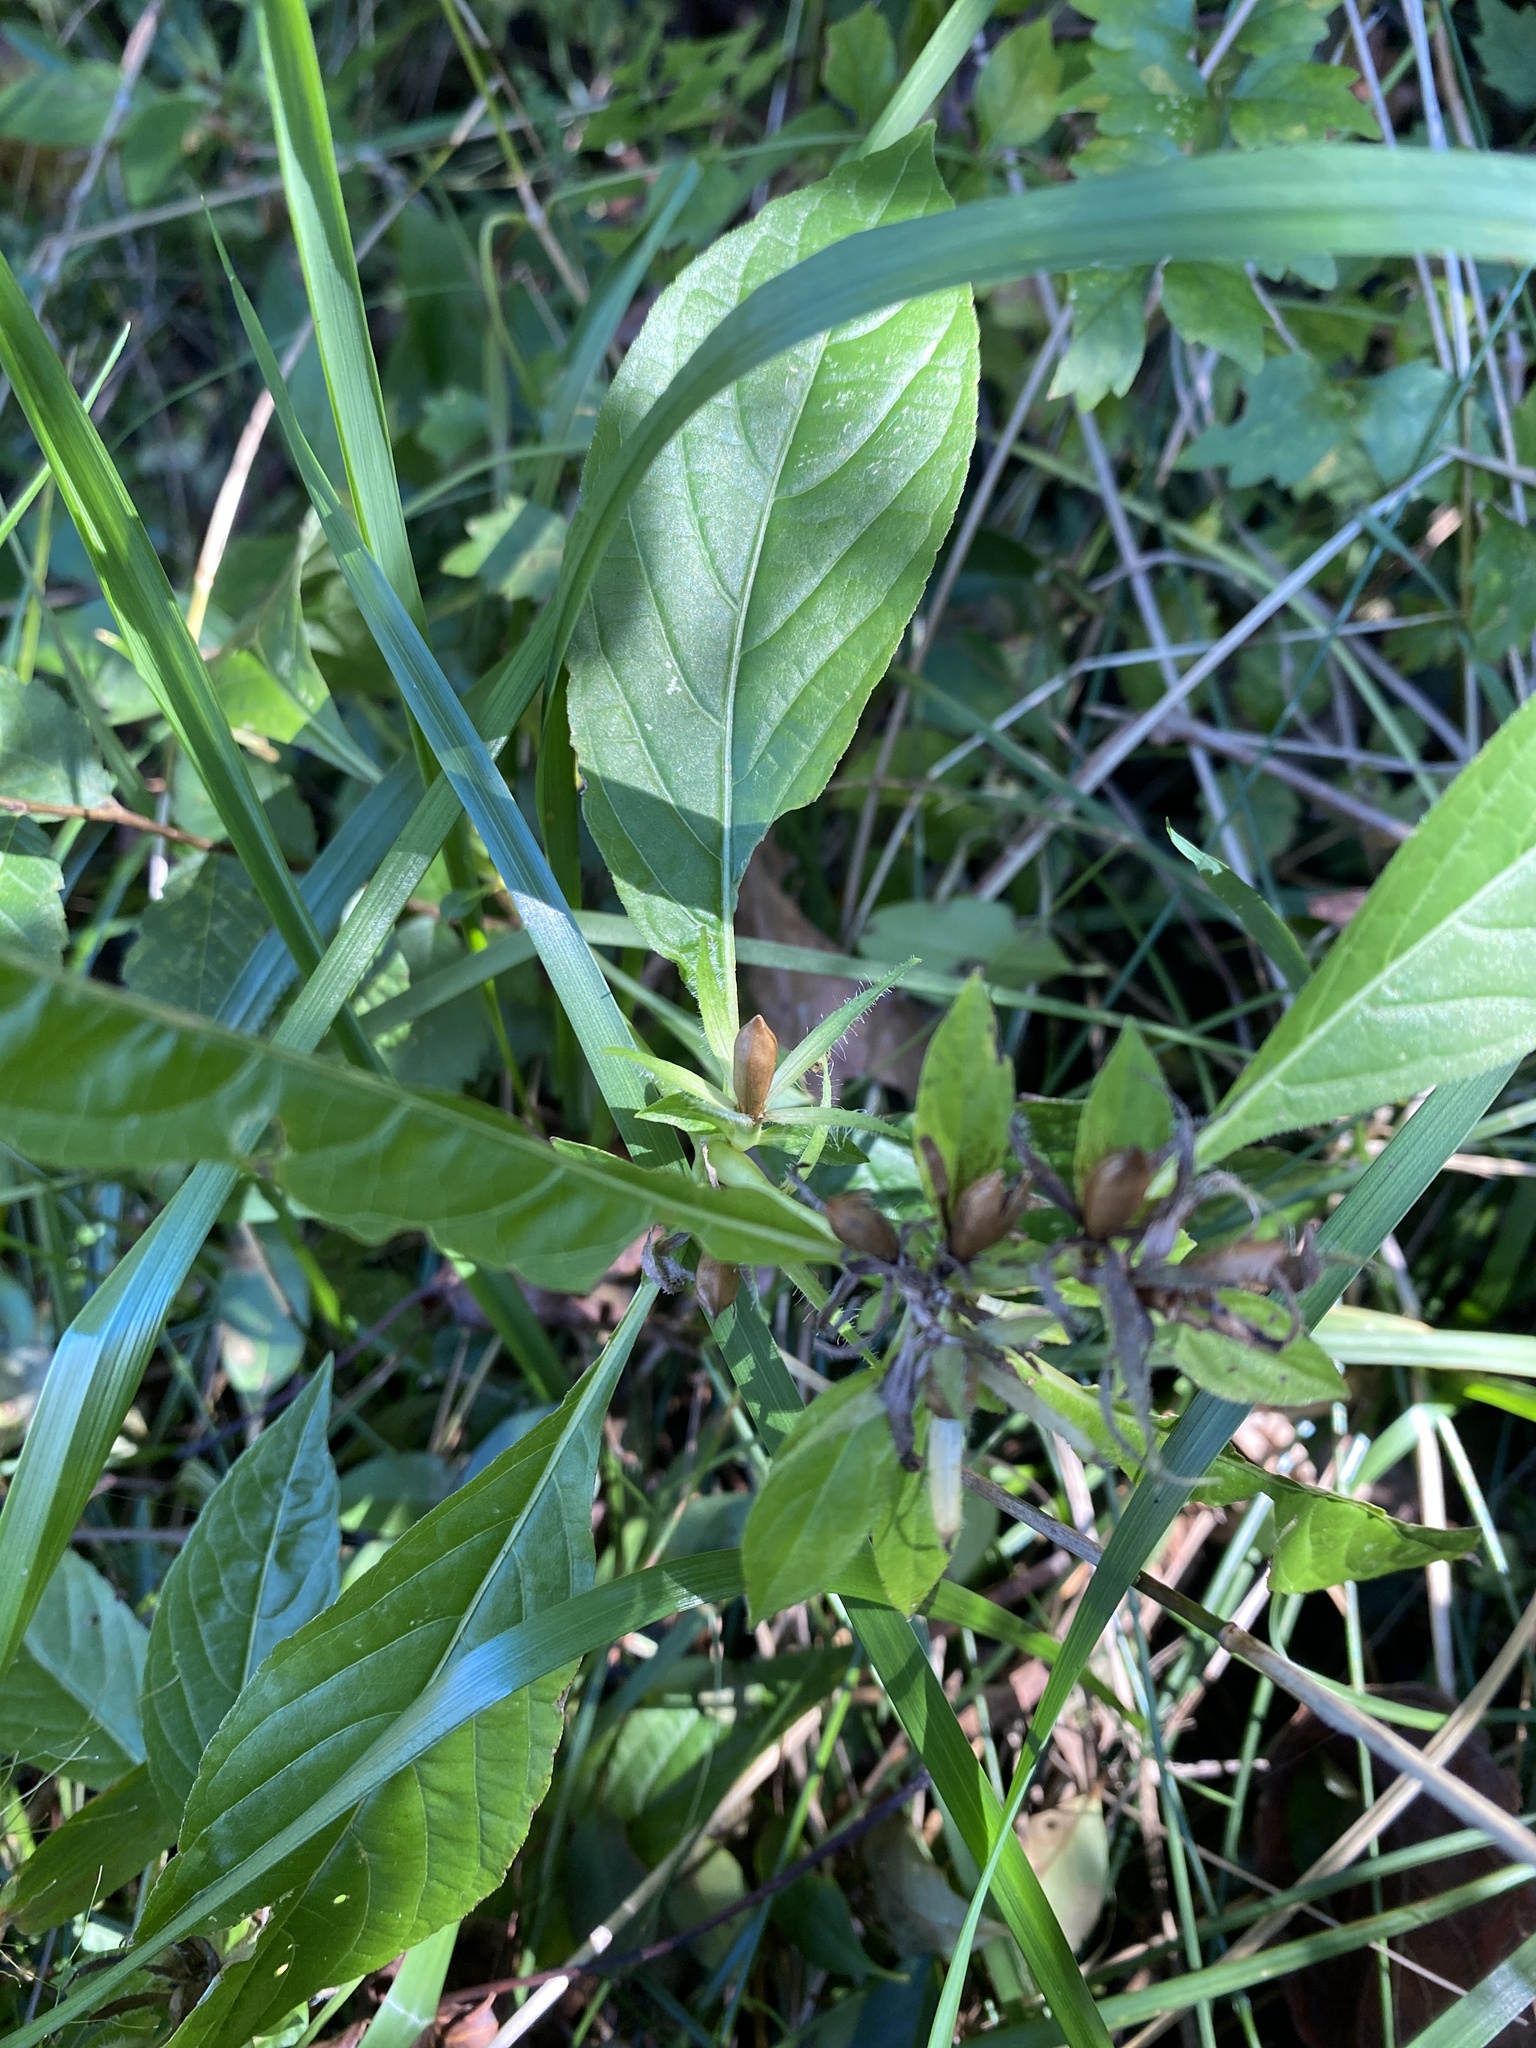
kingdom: Plantae
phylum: Tracheophyta
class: Magnoliopsida
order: Lamiales
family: Acanthaceae
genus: Ruellia
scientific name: Ruellia strepens
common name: Limestone wild petunia
